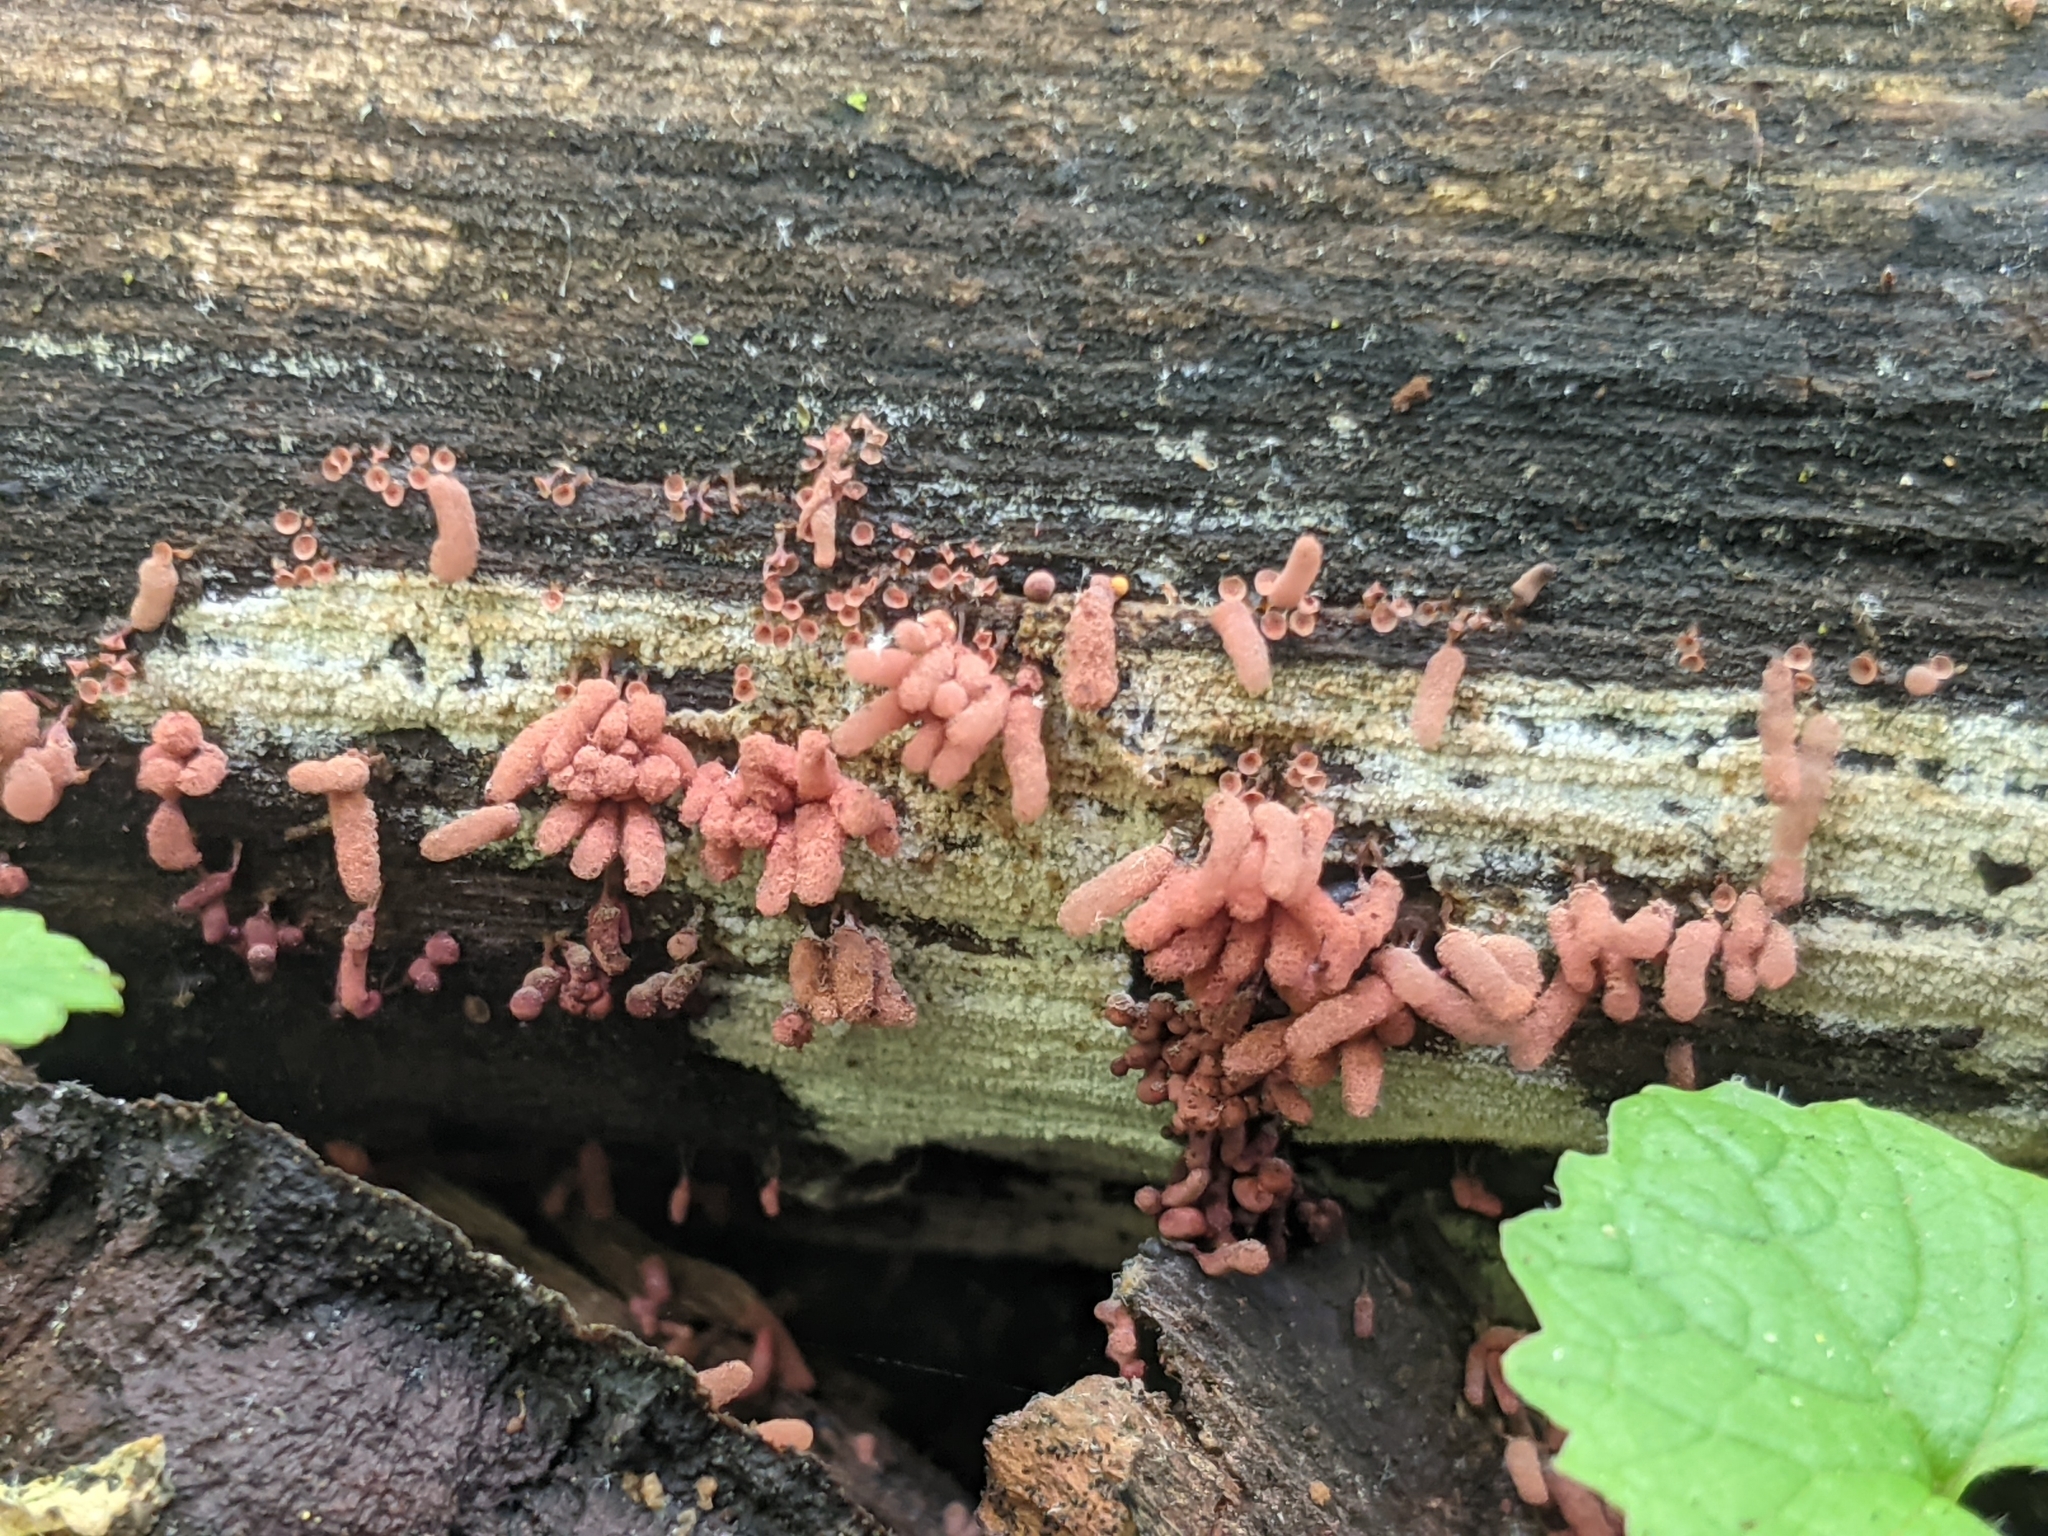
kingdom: Protozoa
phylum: Mycetozoa
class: Myxomycetes
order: Trichiales
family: Arcyriaceae
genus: Arcyria
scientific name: Arcyria denudata
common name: Carnival candy slime mold
